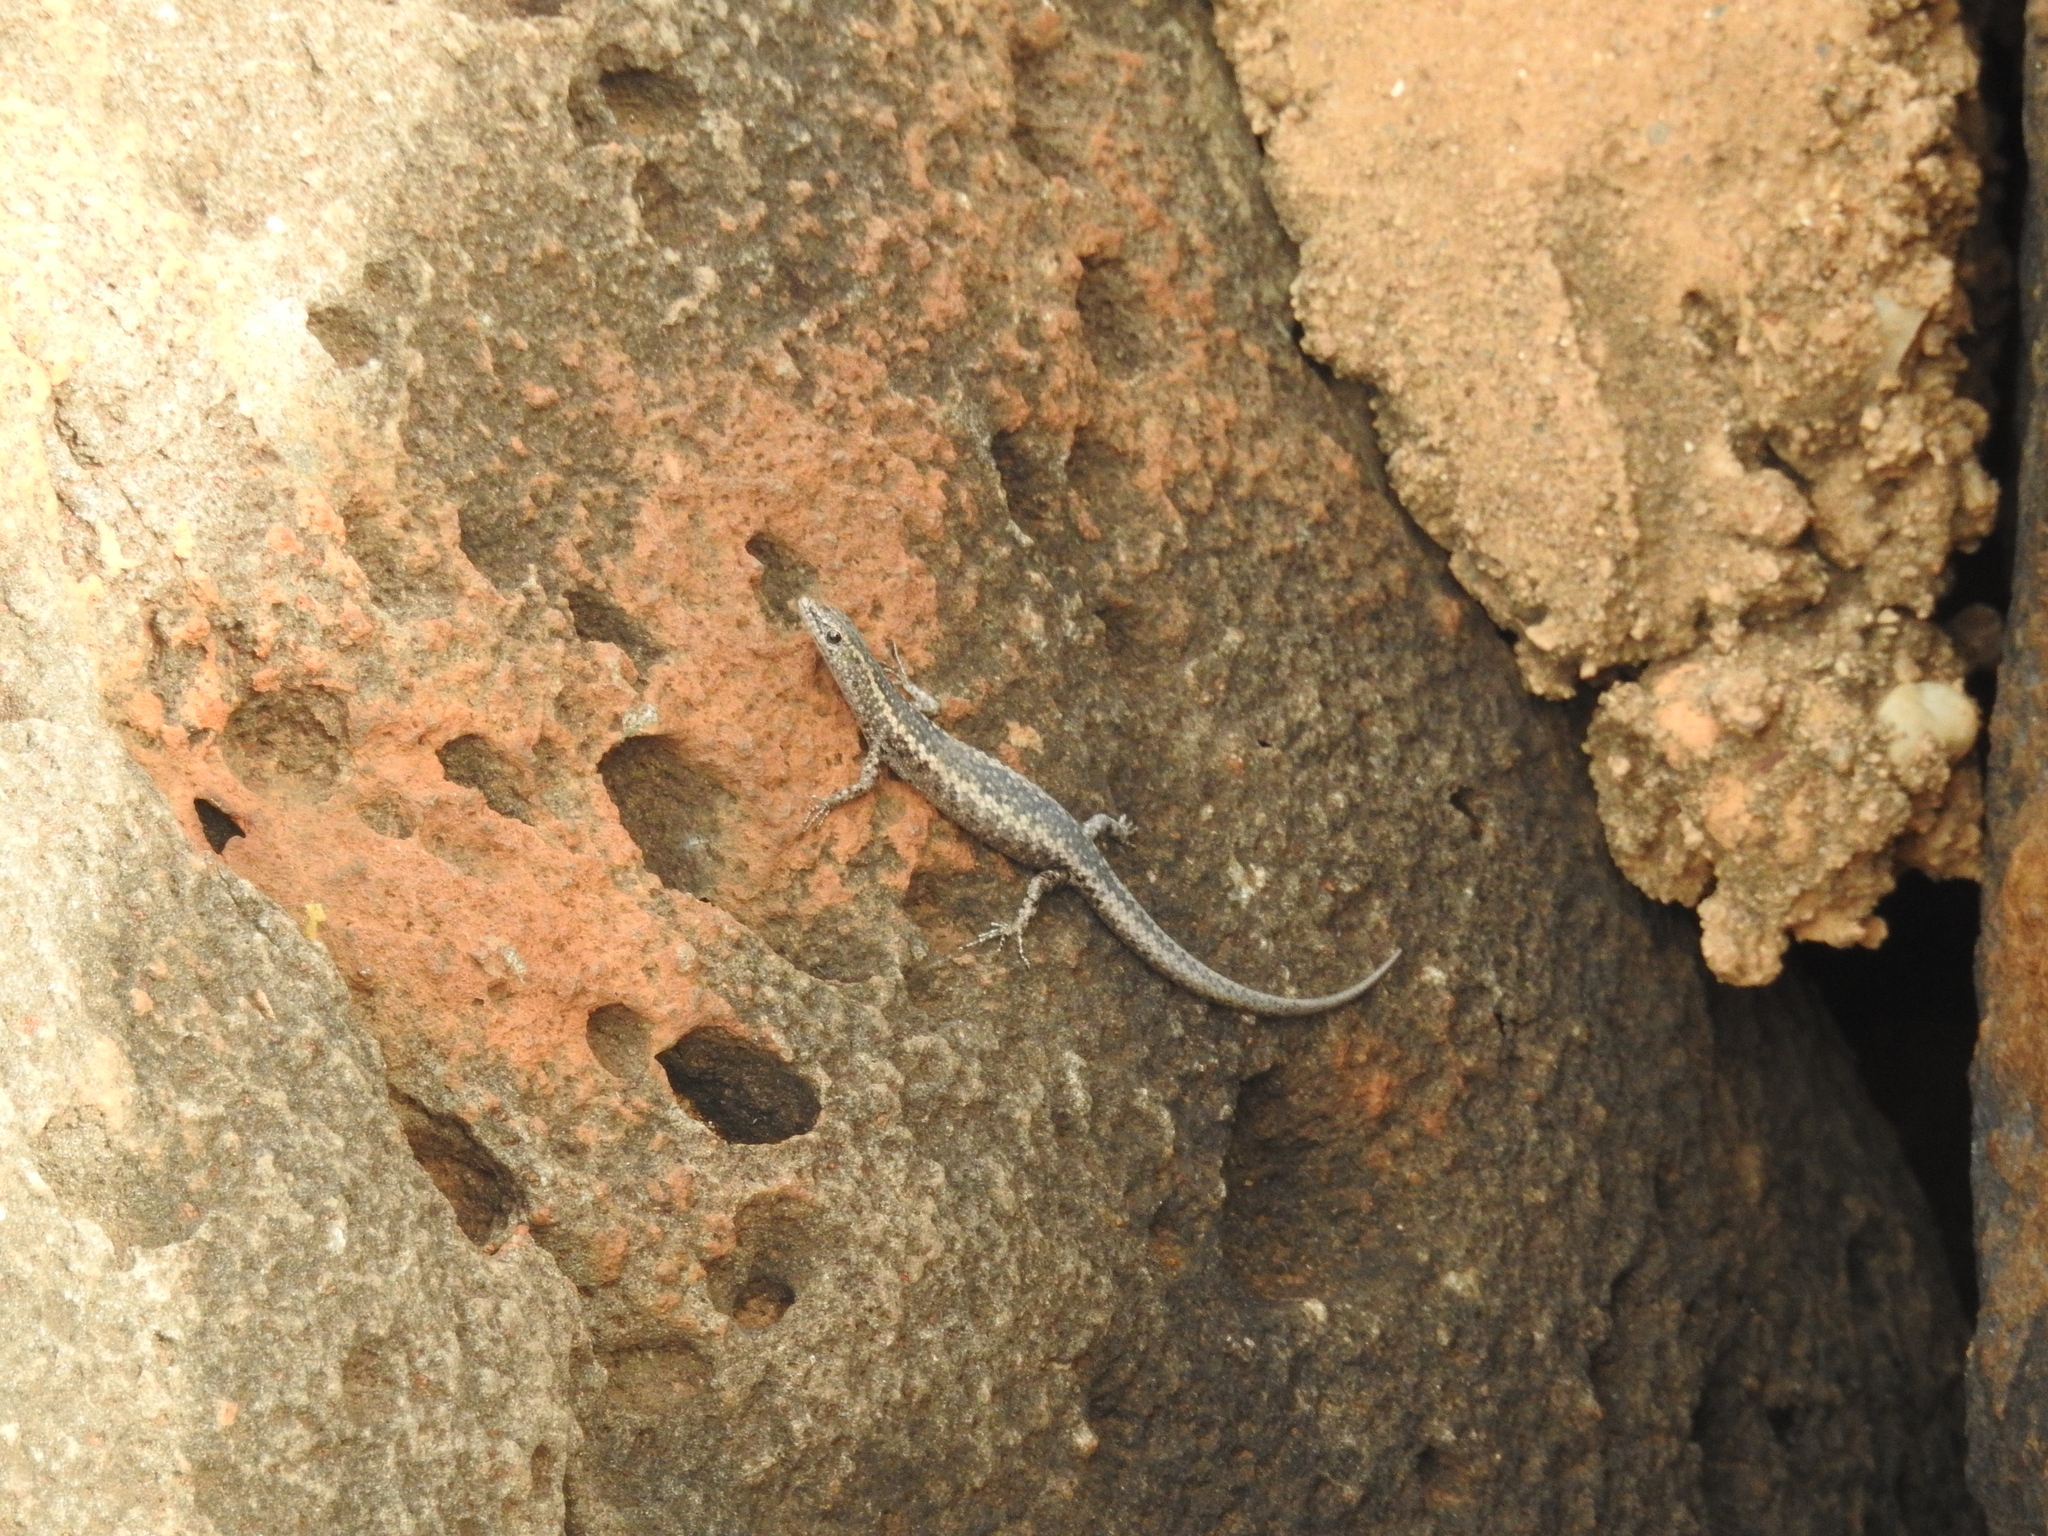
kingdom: Animalia
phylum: Chordata
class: Squamata
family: Scincidae
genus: Cryptoblepharus
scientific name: Cryptoblepharus pannosus
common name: Ragged snake-eyed skink
